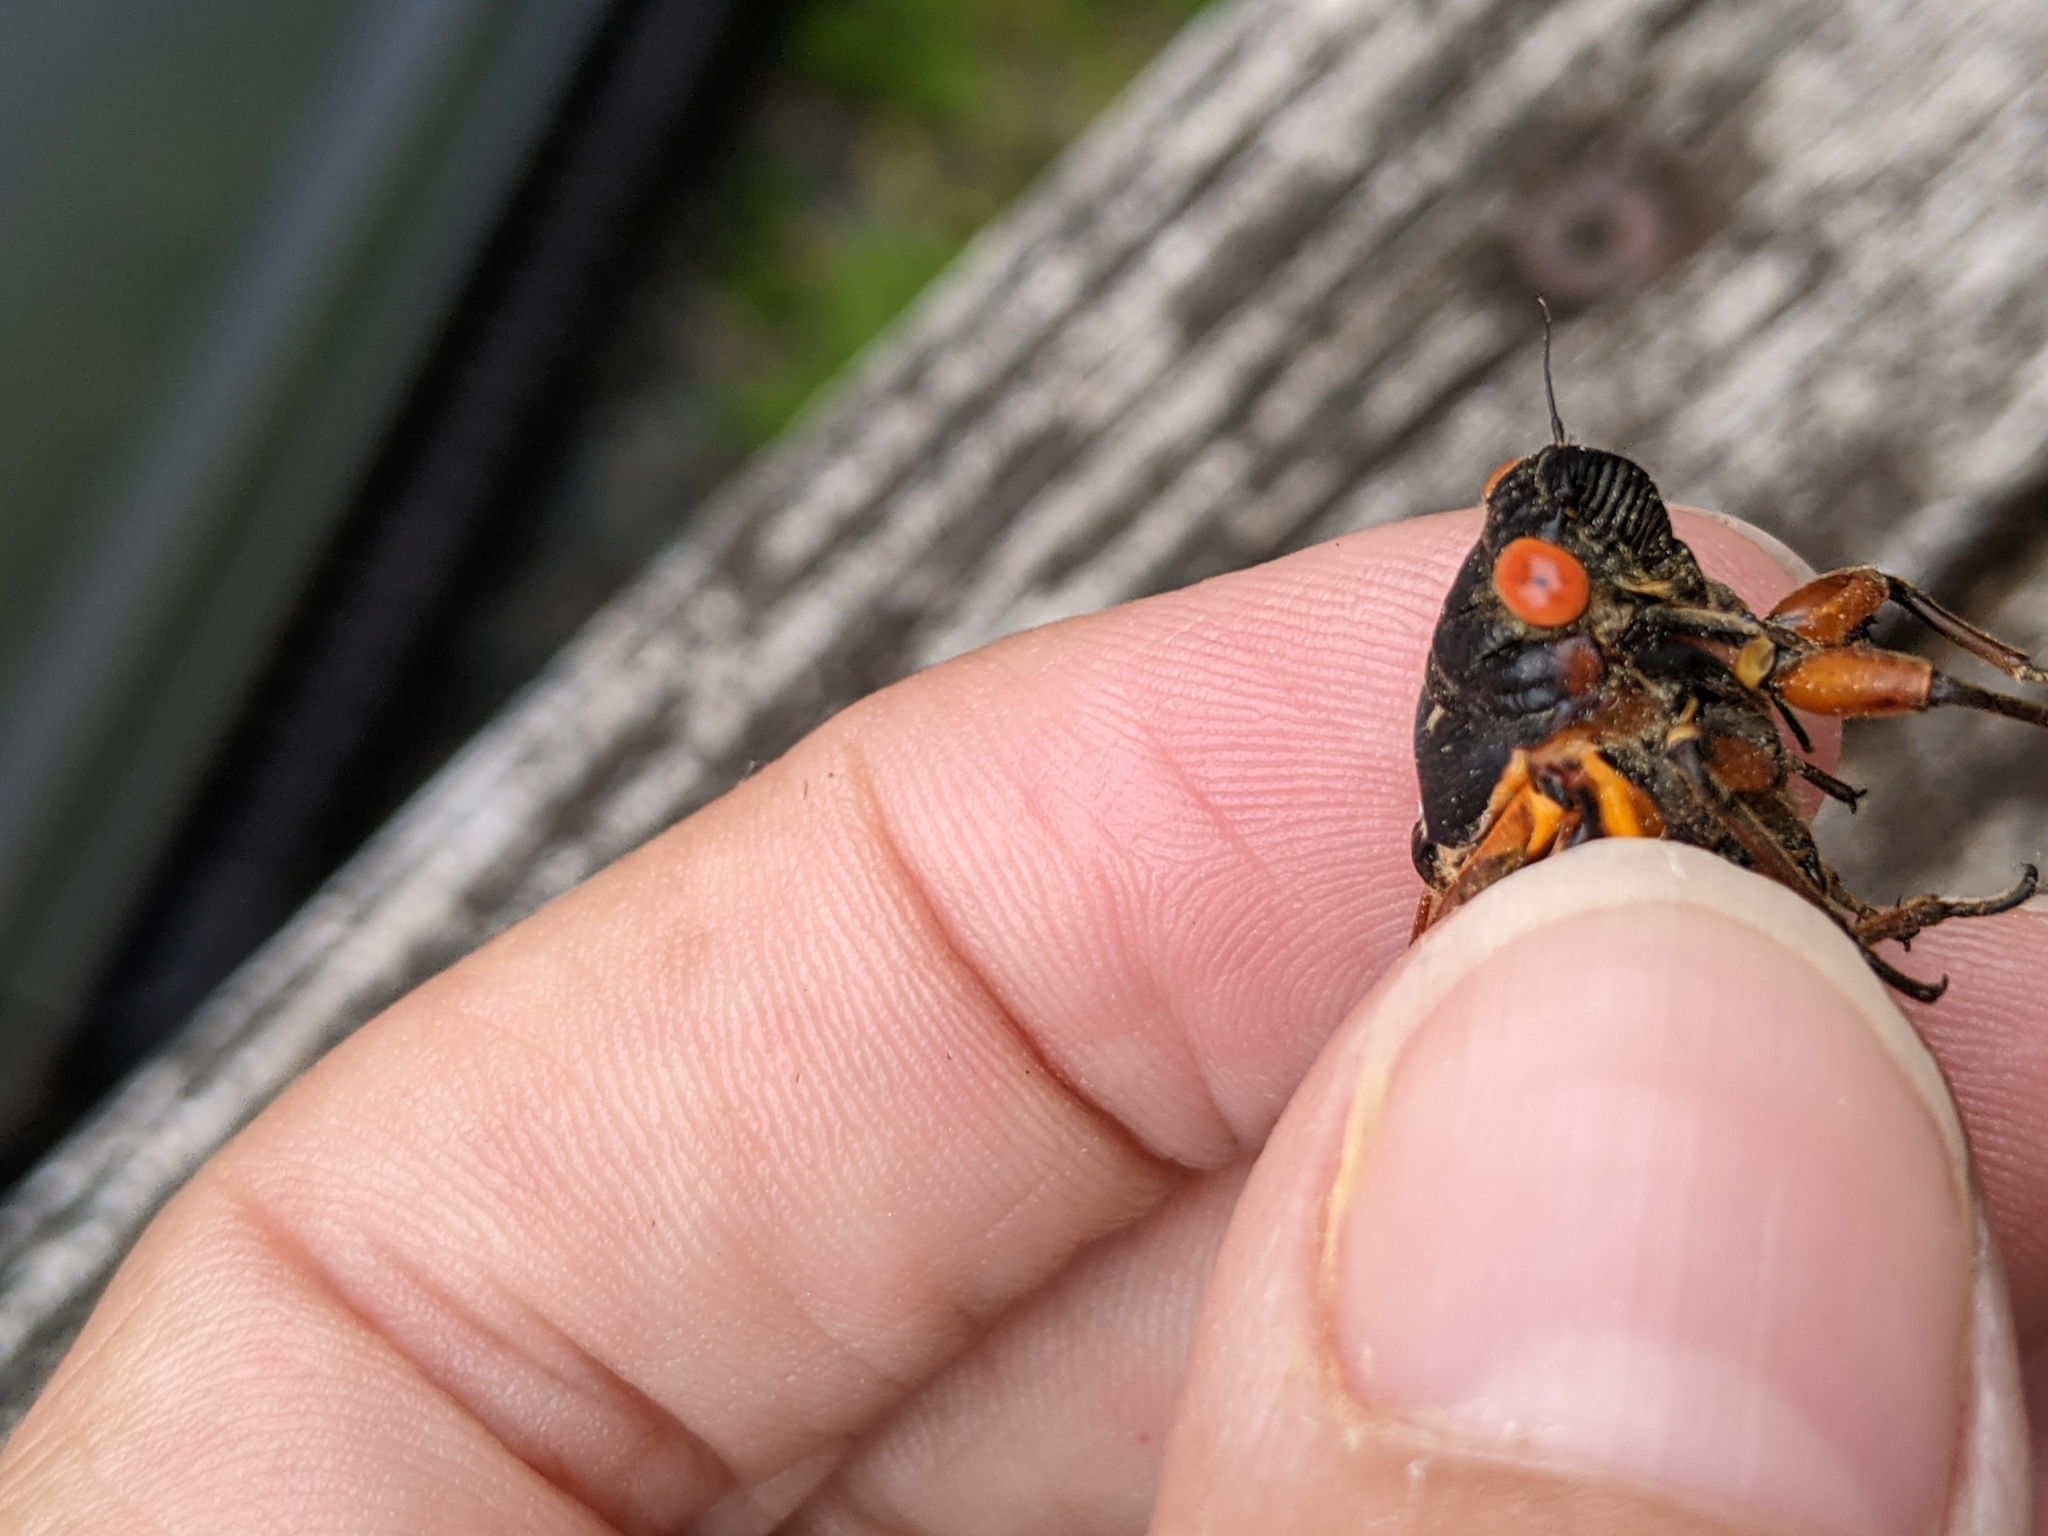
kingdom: Fungi
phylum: Entomophthoromycota
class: Entomophthoromycetes
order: Entomophthorales
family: Entomophthoraceae
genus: Massospora
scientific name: Massospora cicadina
